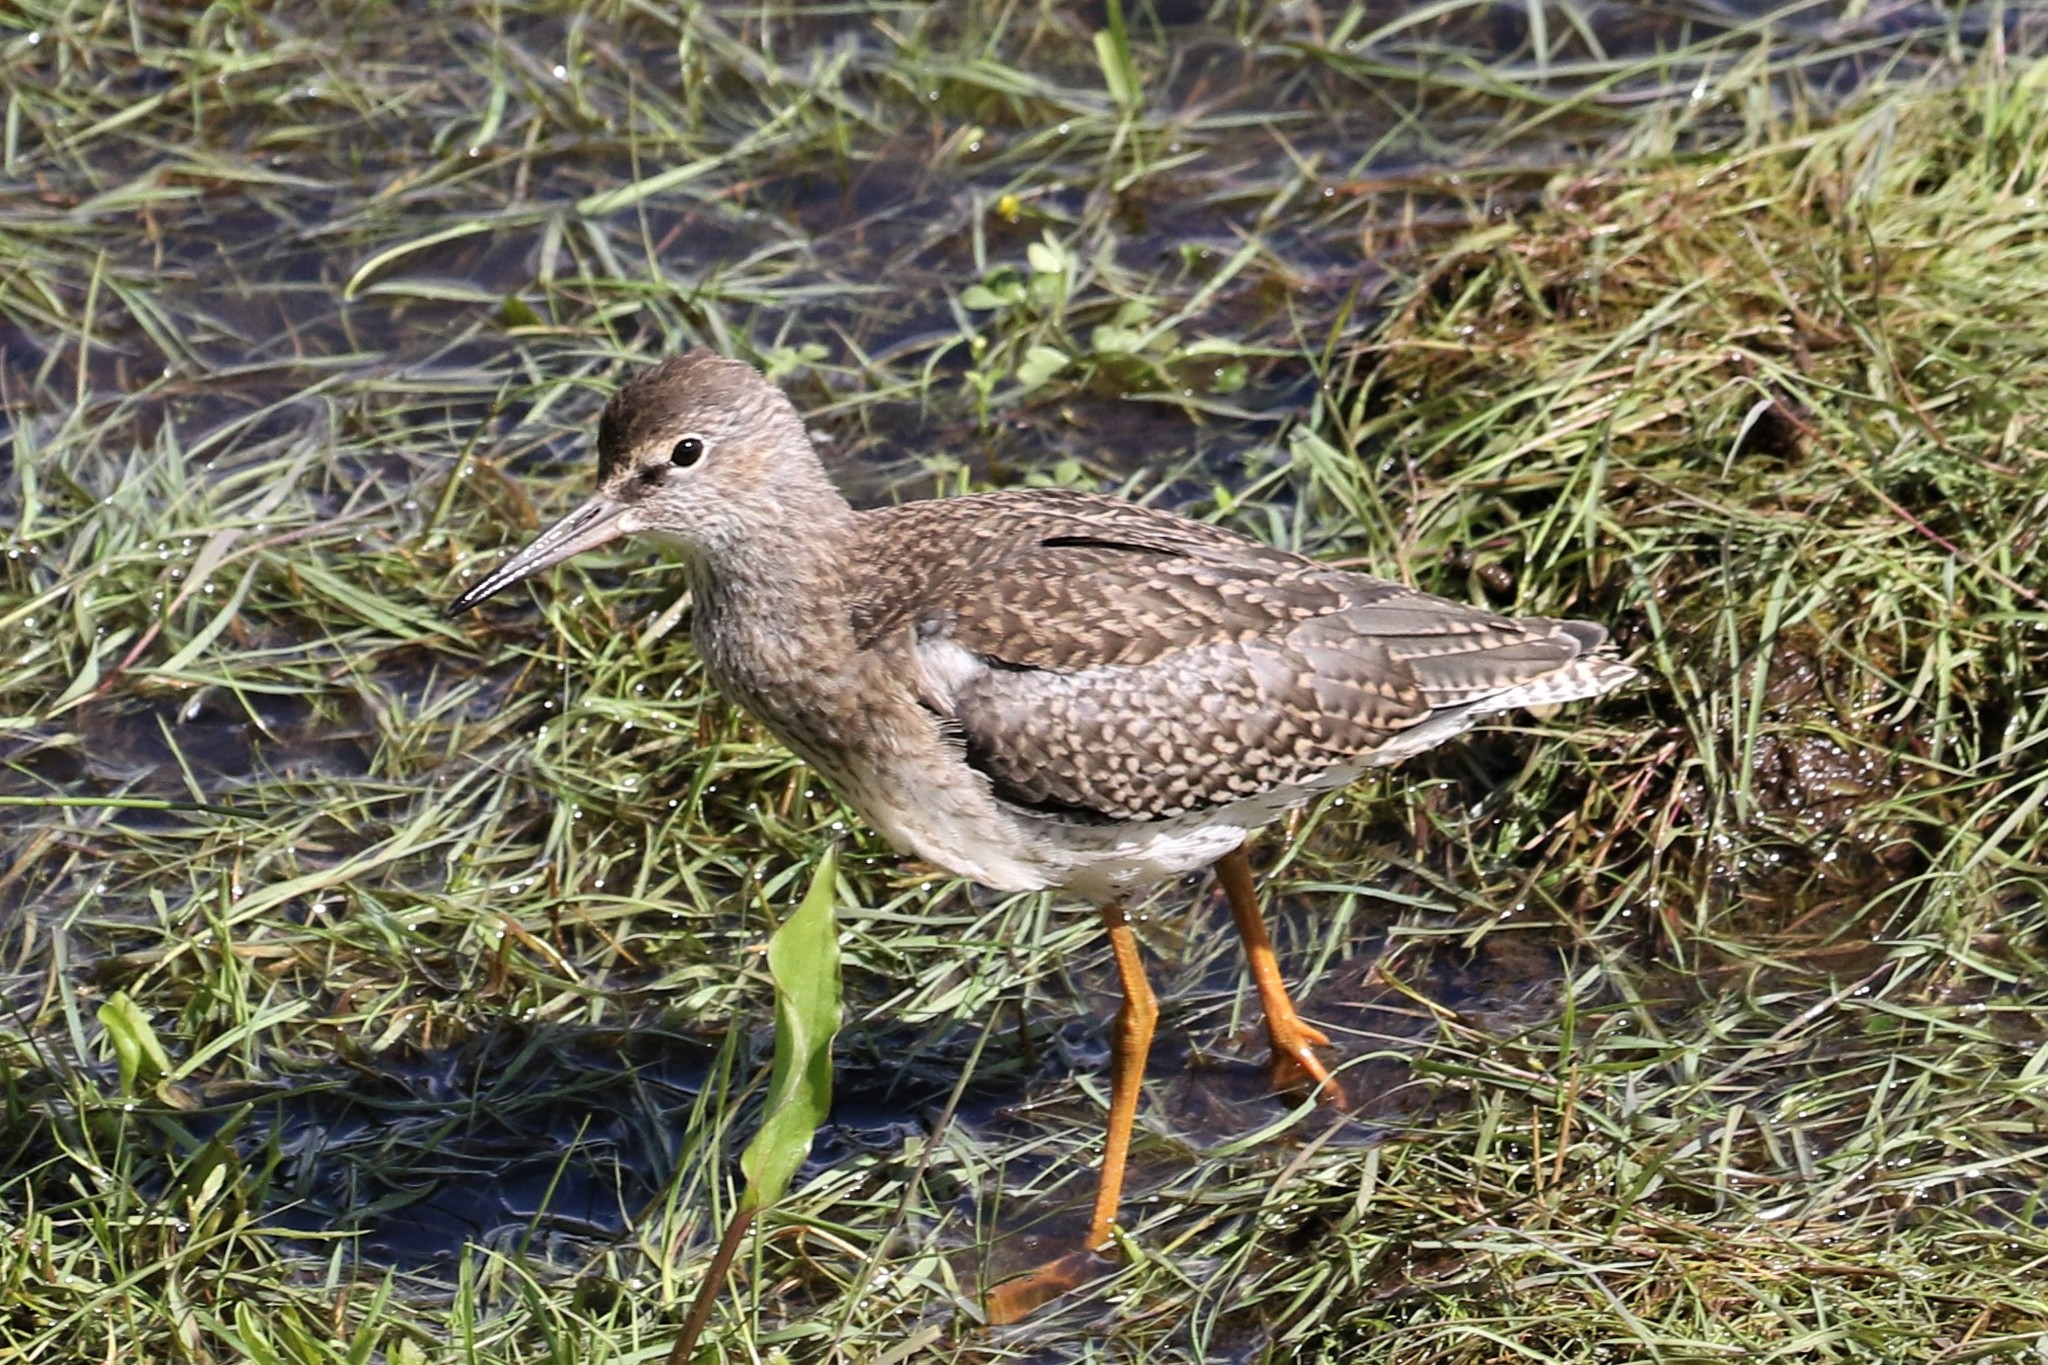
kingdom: Animalia
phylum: Chordata
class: Aves
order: Charadriiformes
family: Scolopacidae
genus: Tringa
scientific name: Tringa totanus
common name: Common redshank
